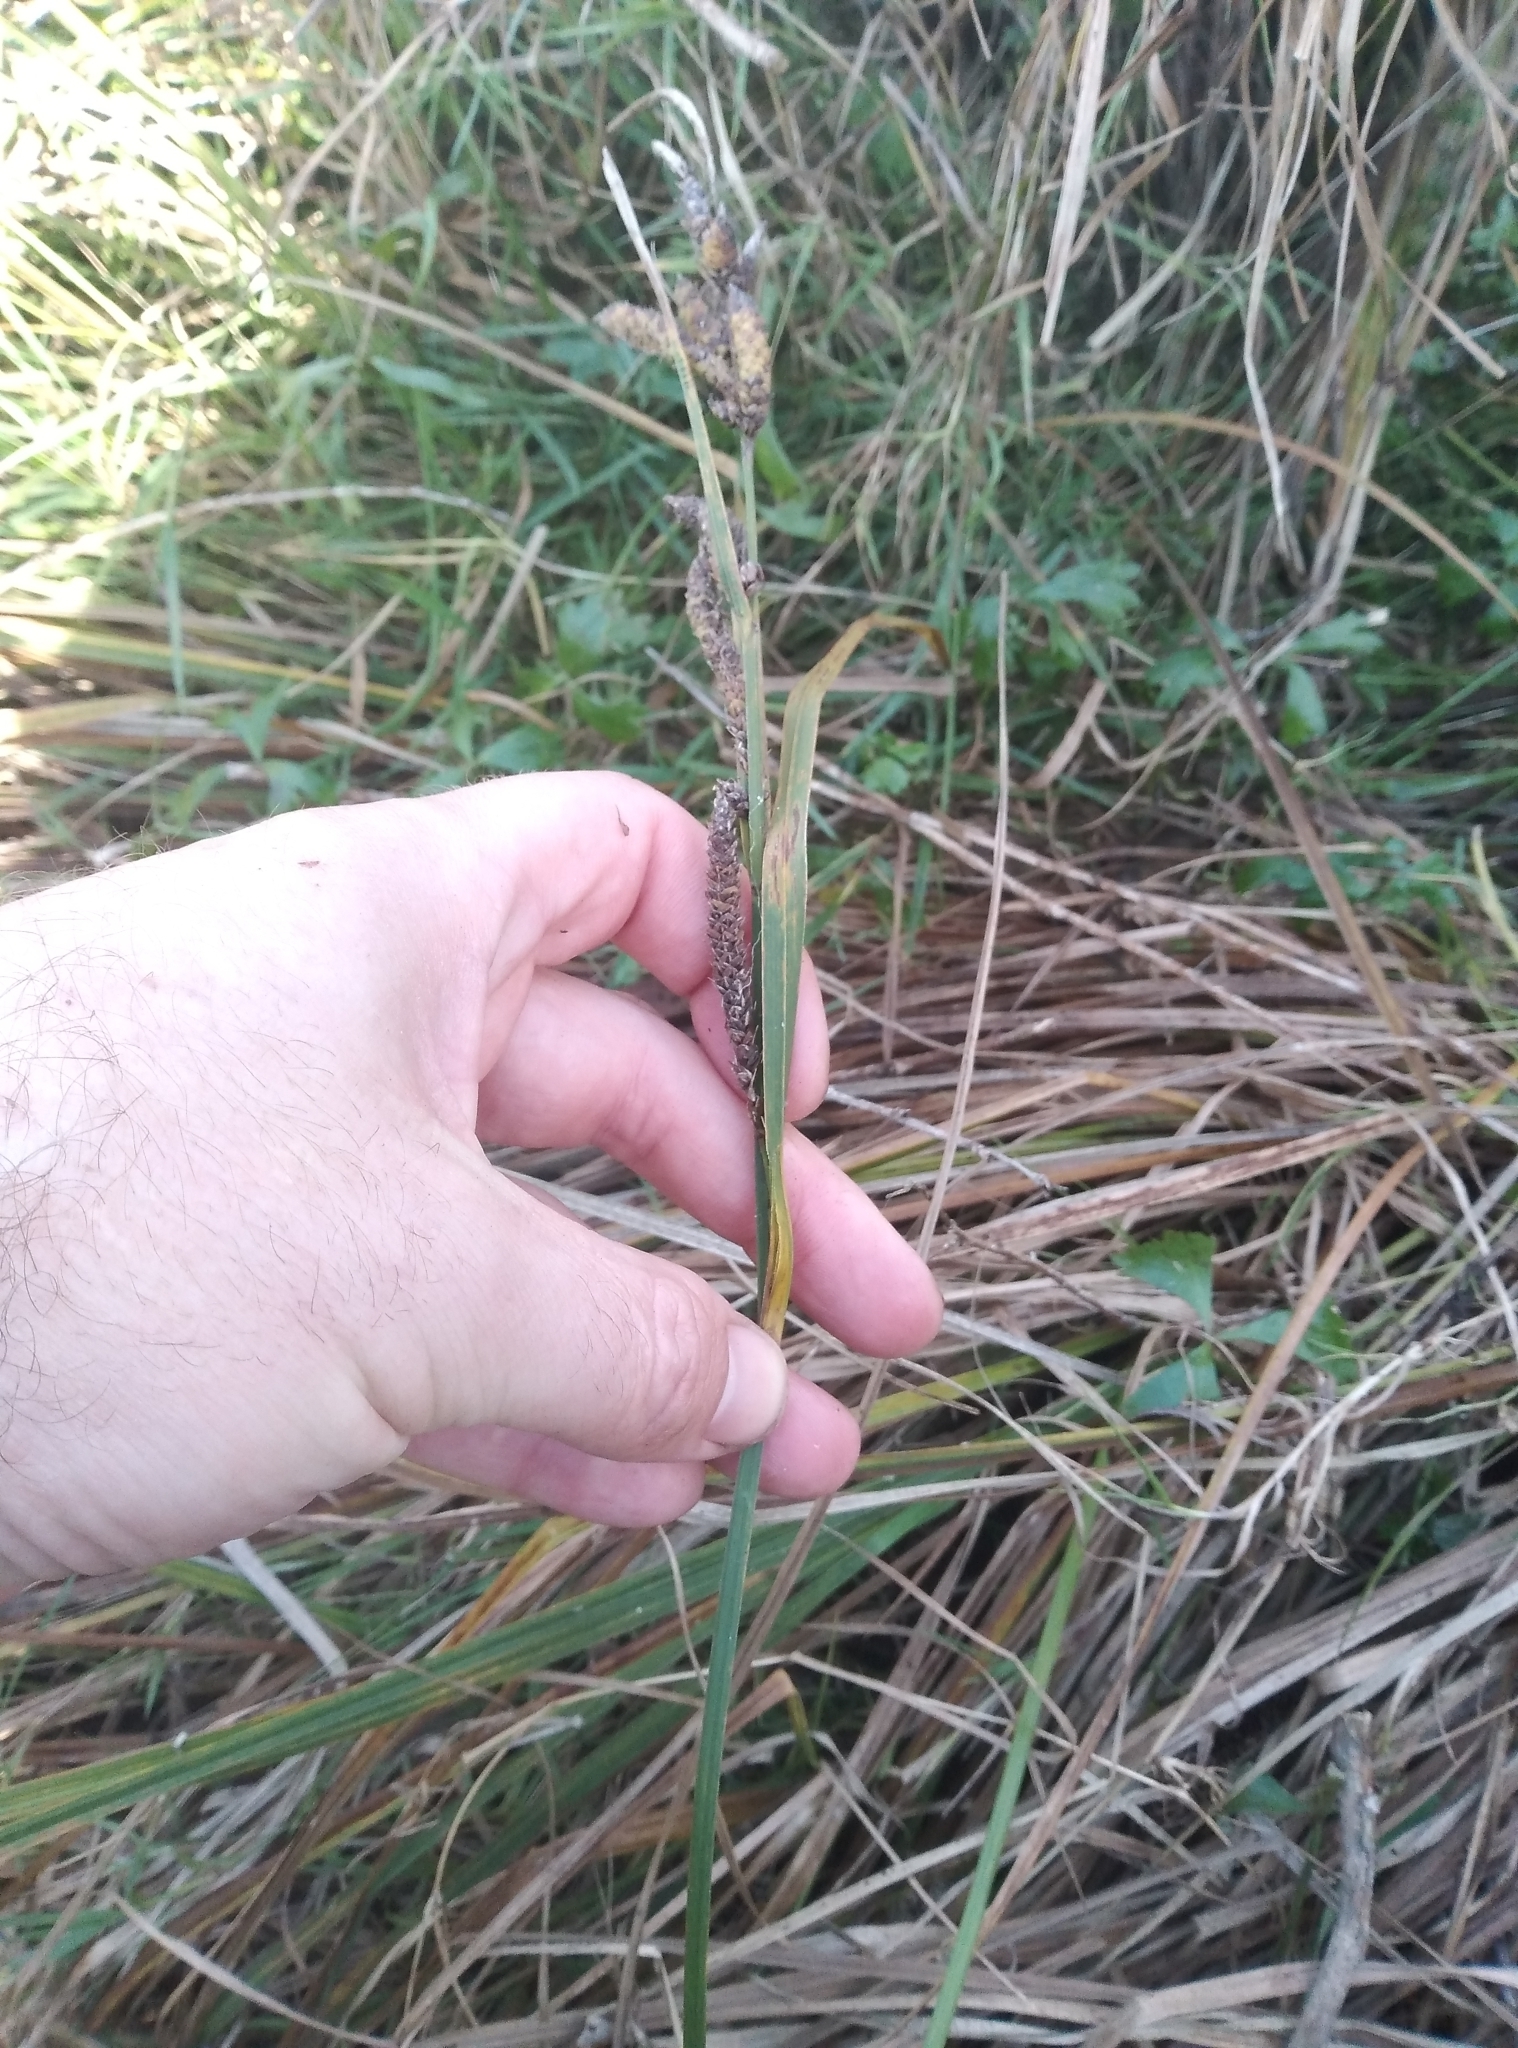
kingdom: Plantae
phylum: Tracheophyta
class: Liliopsida
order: Poales
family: Cyperaceae
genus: Carex
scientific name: Carex sinclairii
